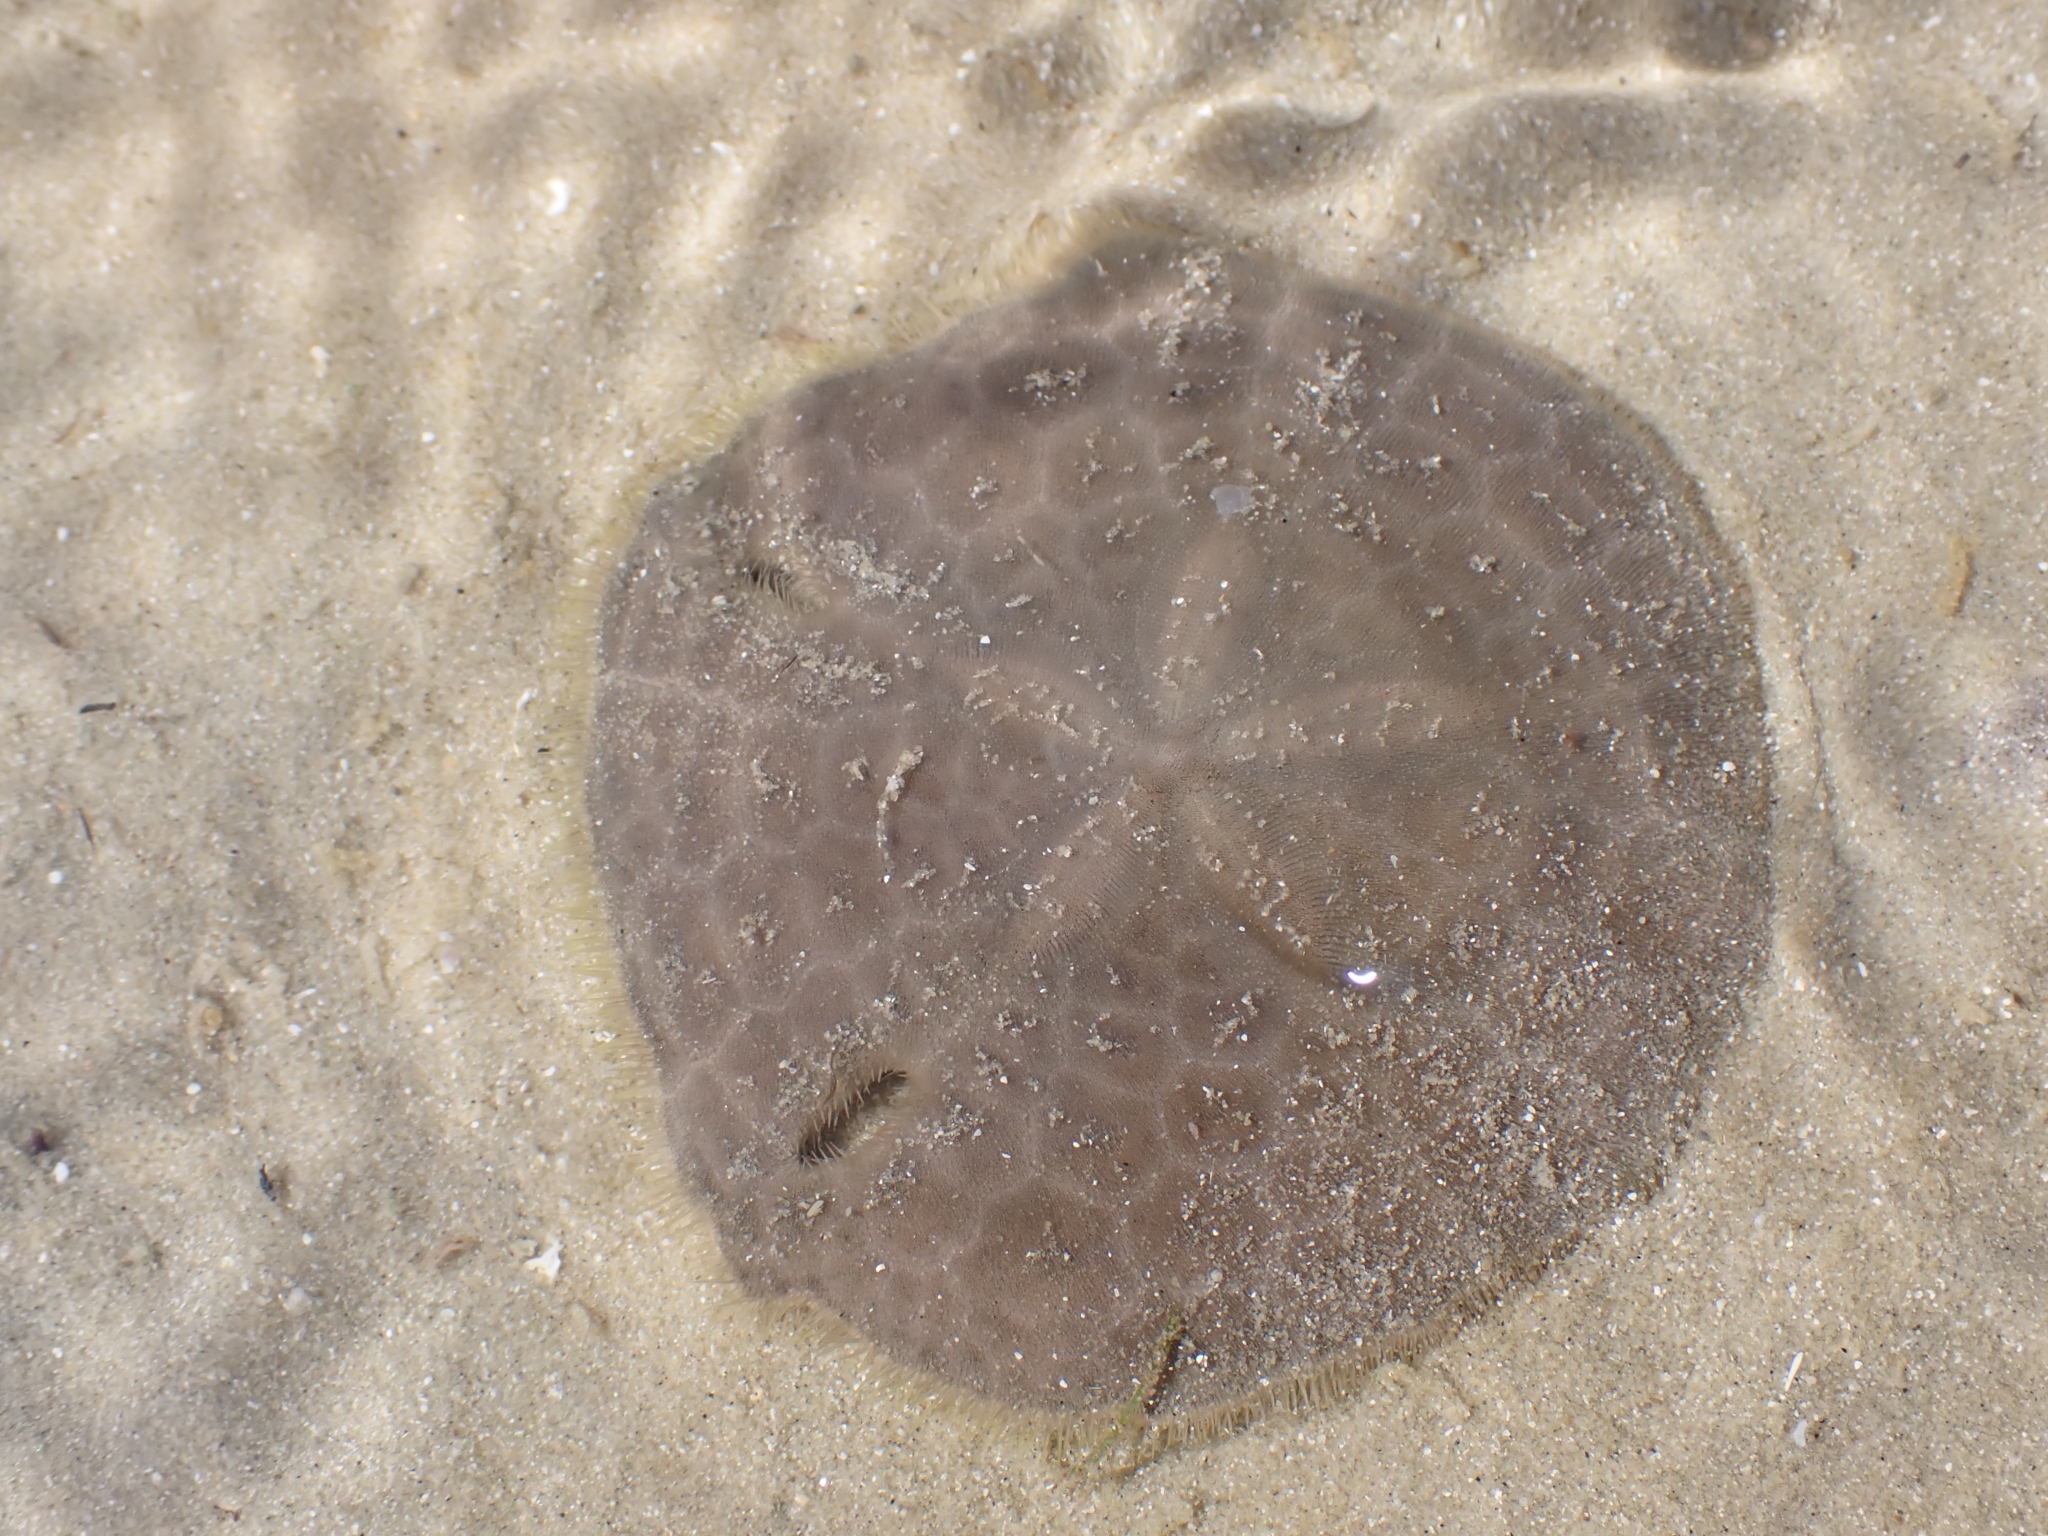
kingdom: Animalia
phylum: Echinodermata
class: Echinoidea
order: Echinolampadacea
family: Astriclypeidae
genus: Echinodiscus
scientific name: Echinodiscus andamanensis
